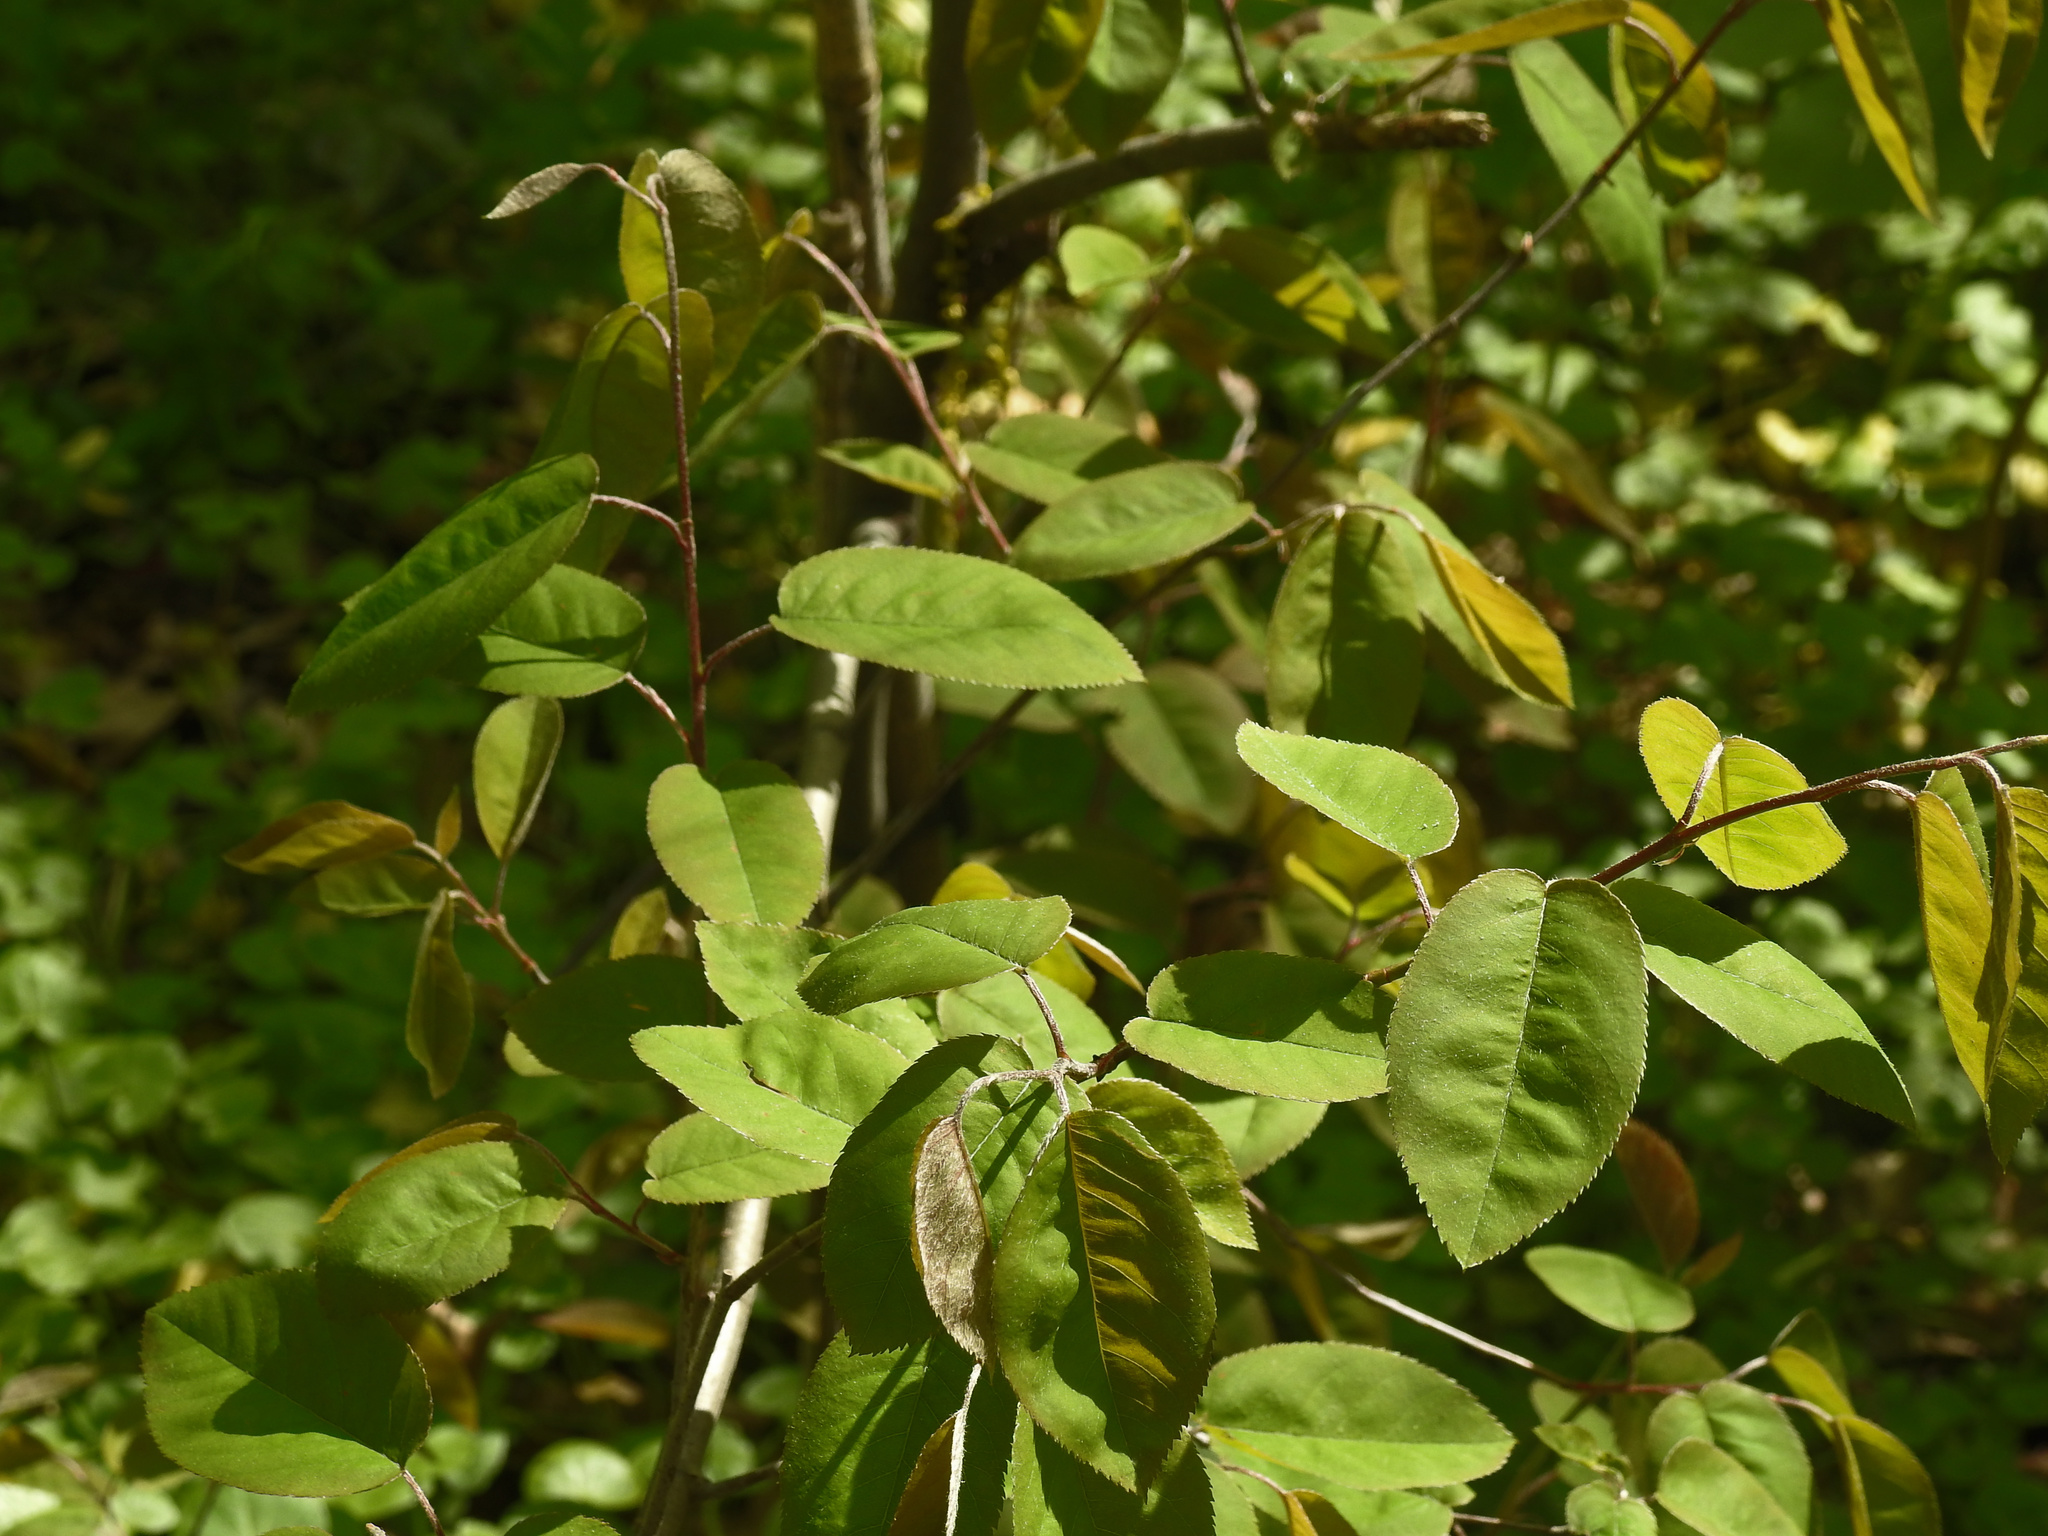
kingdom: Plantae
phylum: Tracheophyta
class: Magnoliopsida
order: Rosales
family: Rosaceae
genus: Amelanchier
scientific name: Amelanchier arborea
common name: Downy serviceberry
